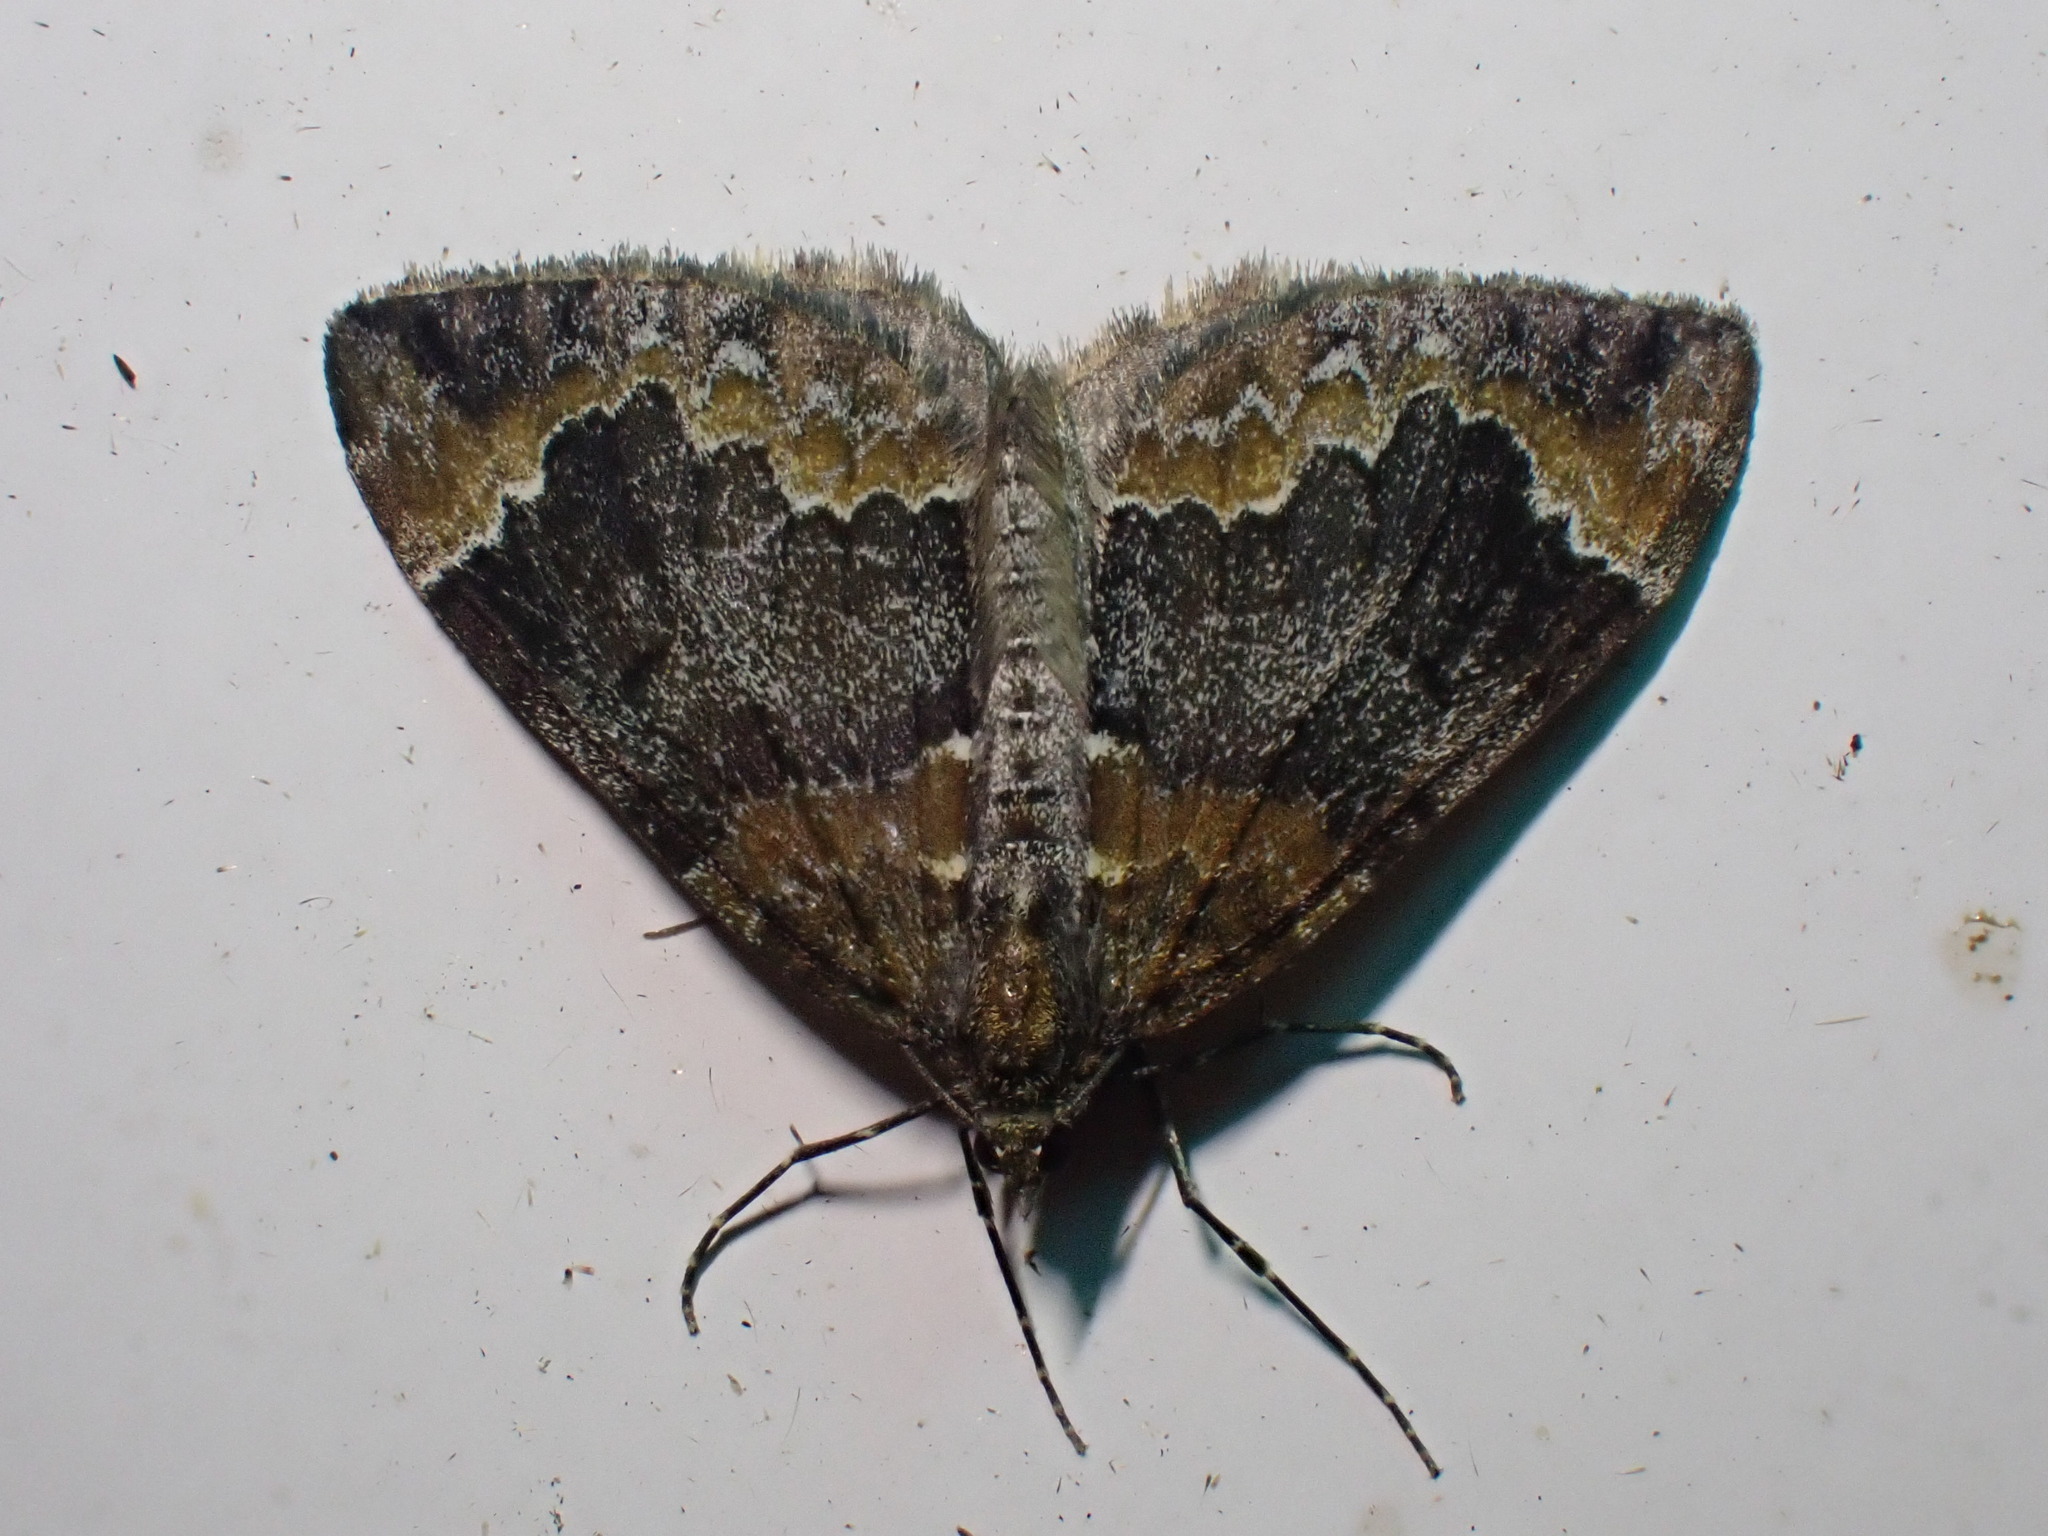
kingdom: Animalia
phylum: Arthropoda
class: Insecta
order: Lepidoptera
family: Geometridae
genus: Dysstroma
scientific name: Dysstroma truncata
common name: Common marbled carpet
